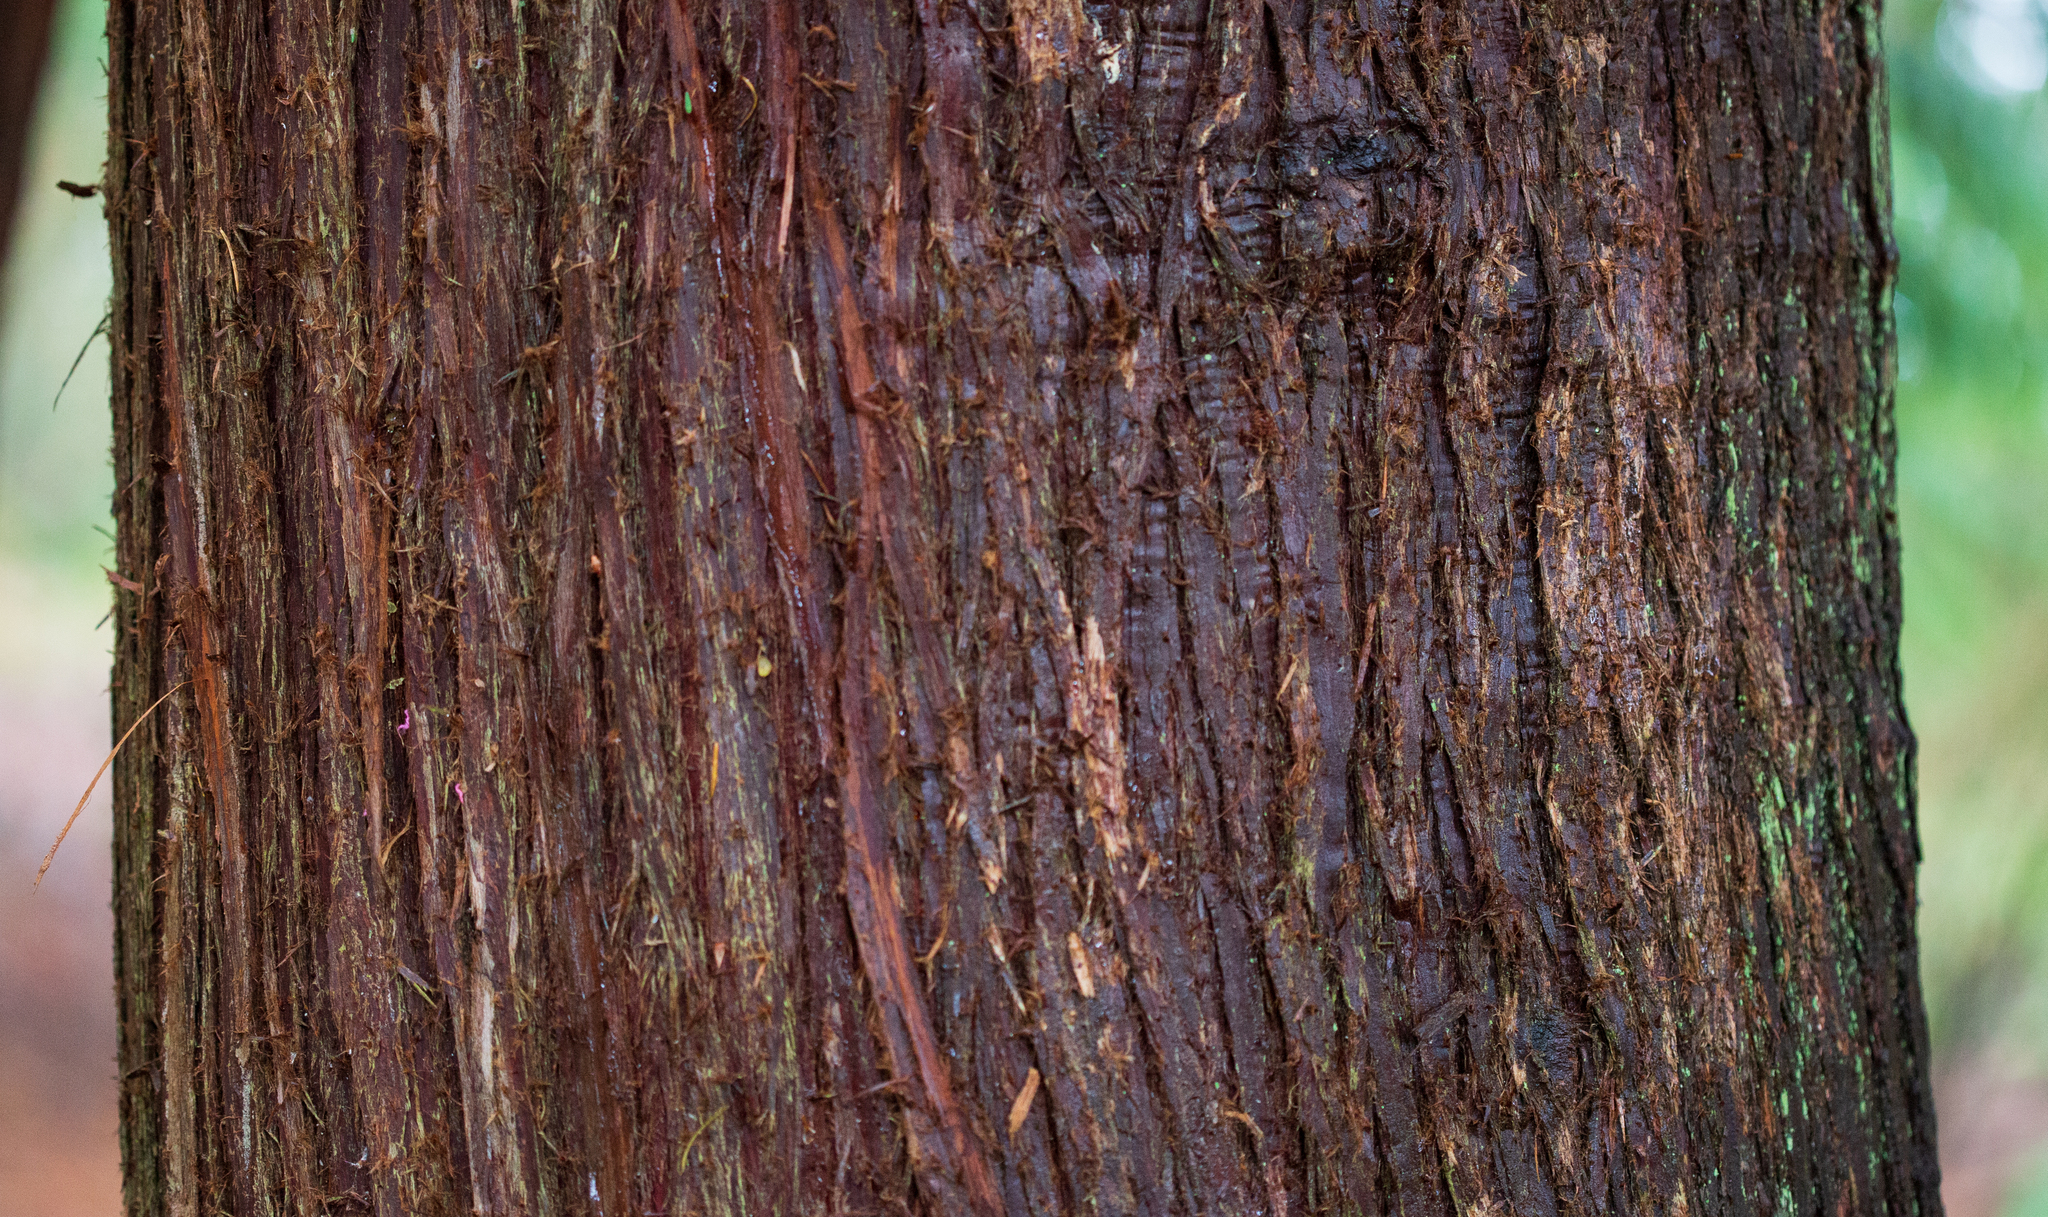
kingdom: Plantae
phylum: Tracheophyta
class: Pinopsida
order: Pinales
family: Cupressaceae
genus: Thuja
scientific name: Thuja plicata
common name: Western red-cedar
